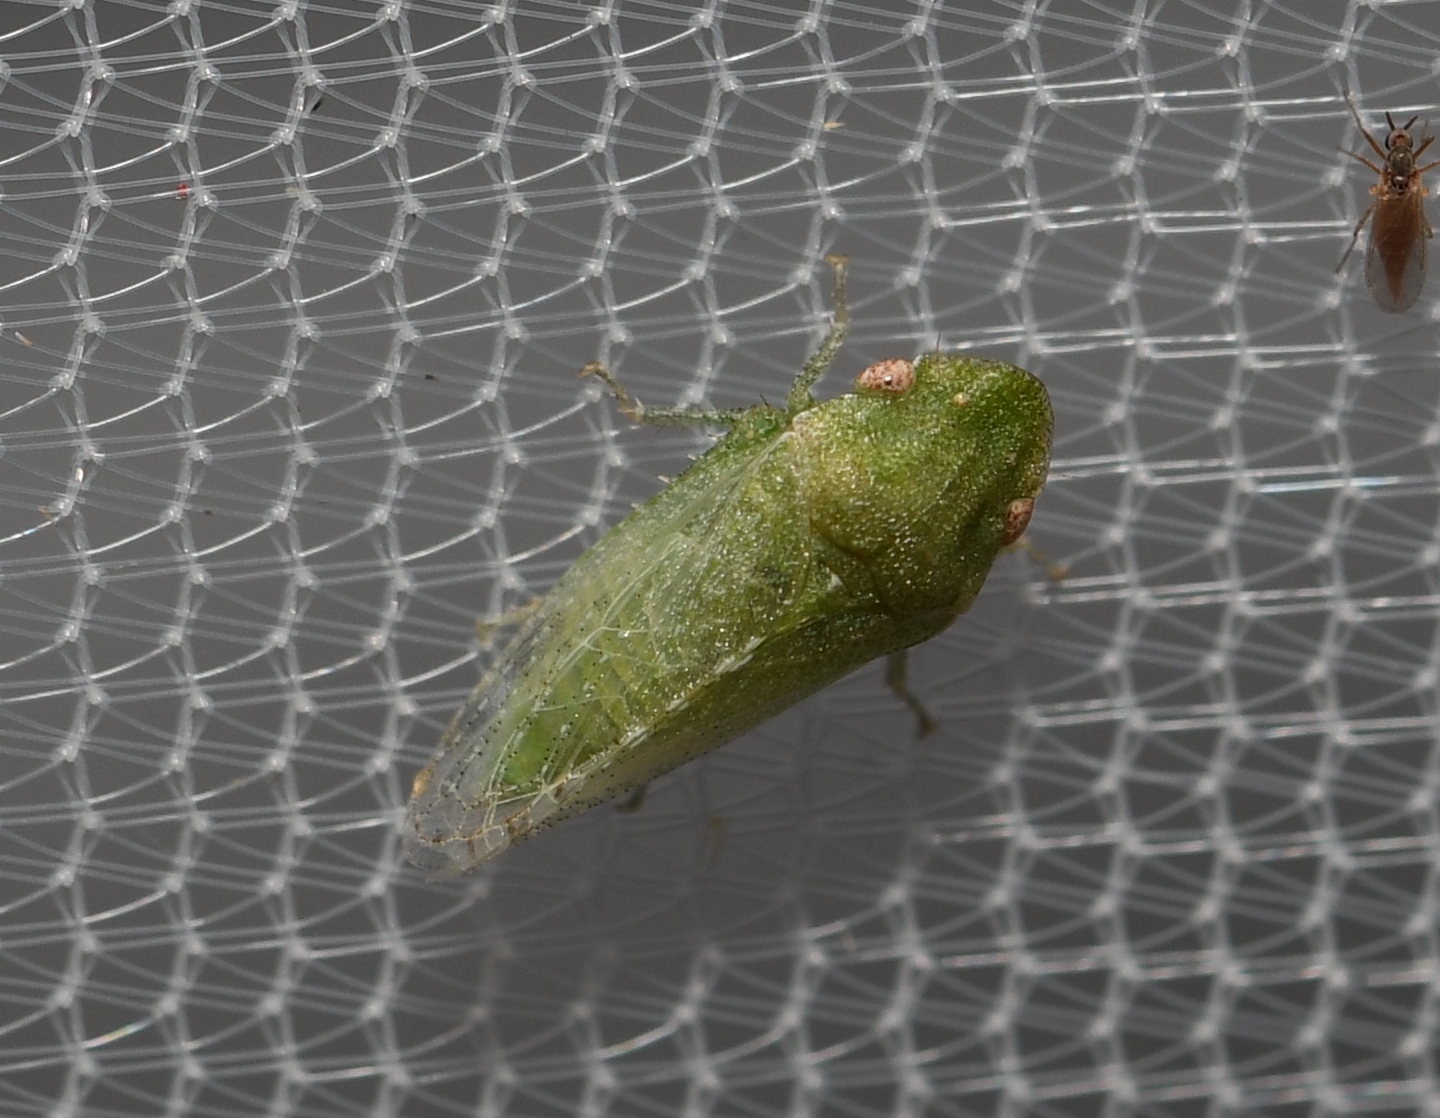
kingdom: Animalia
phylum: Arthropoda
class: Insecta
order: Hemiptera
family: Cicadellidae
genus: Xerophloea
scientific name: Xerophloea viridis
